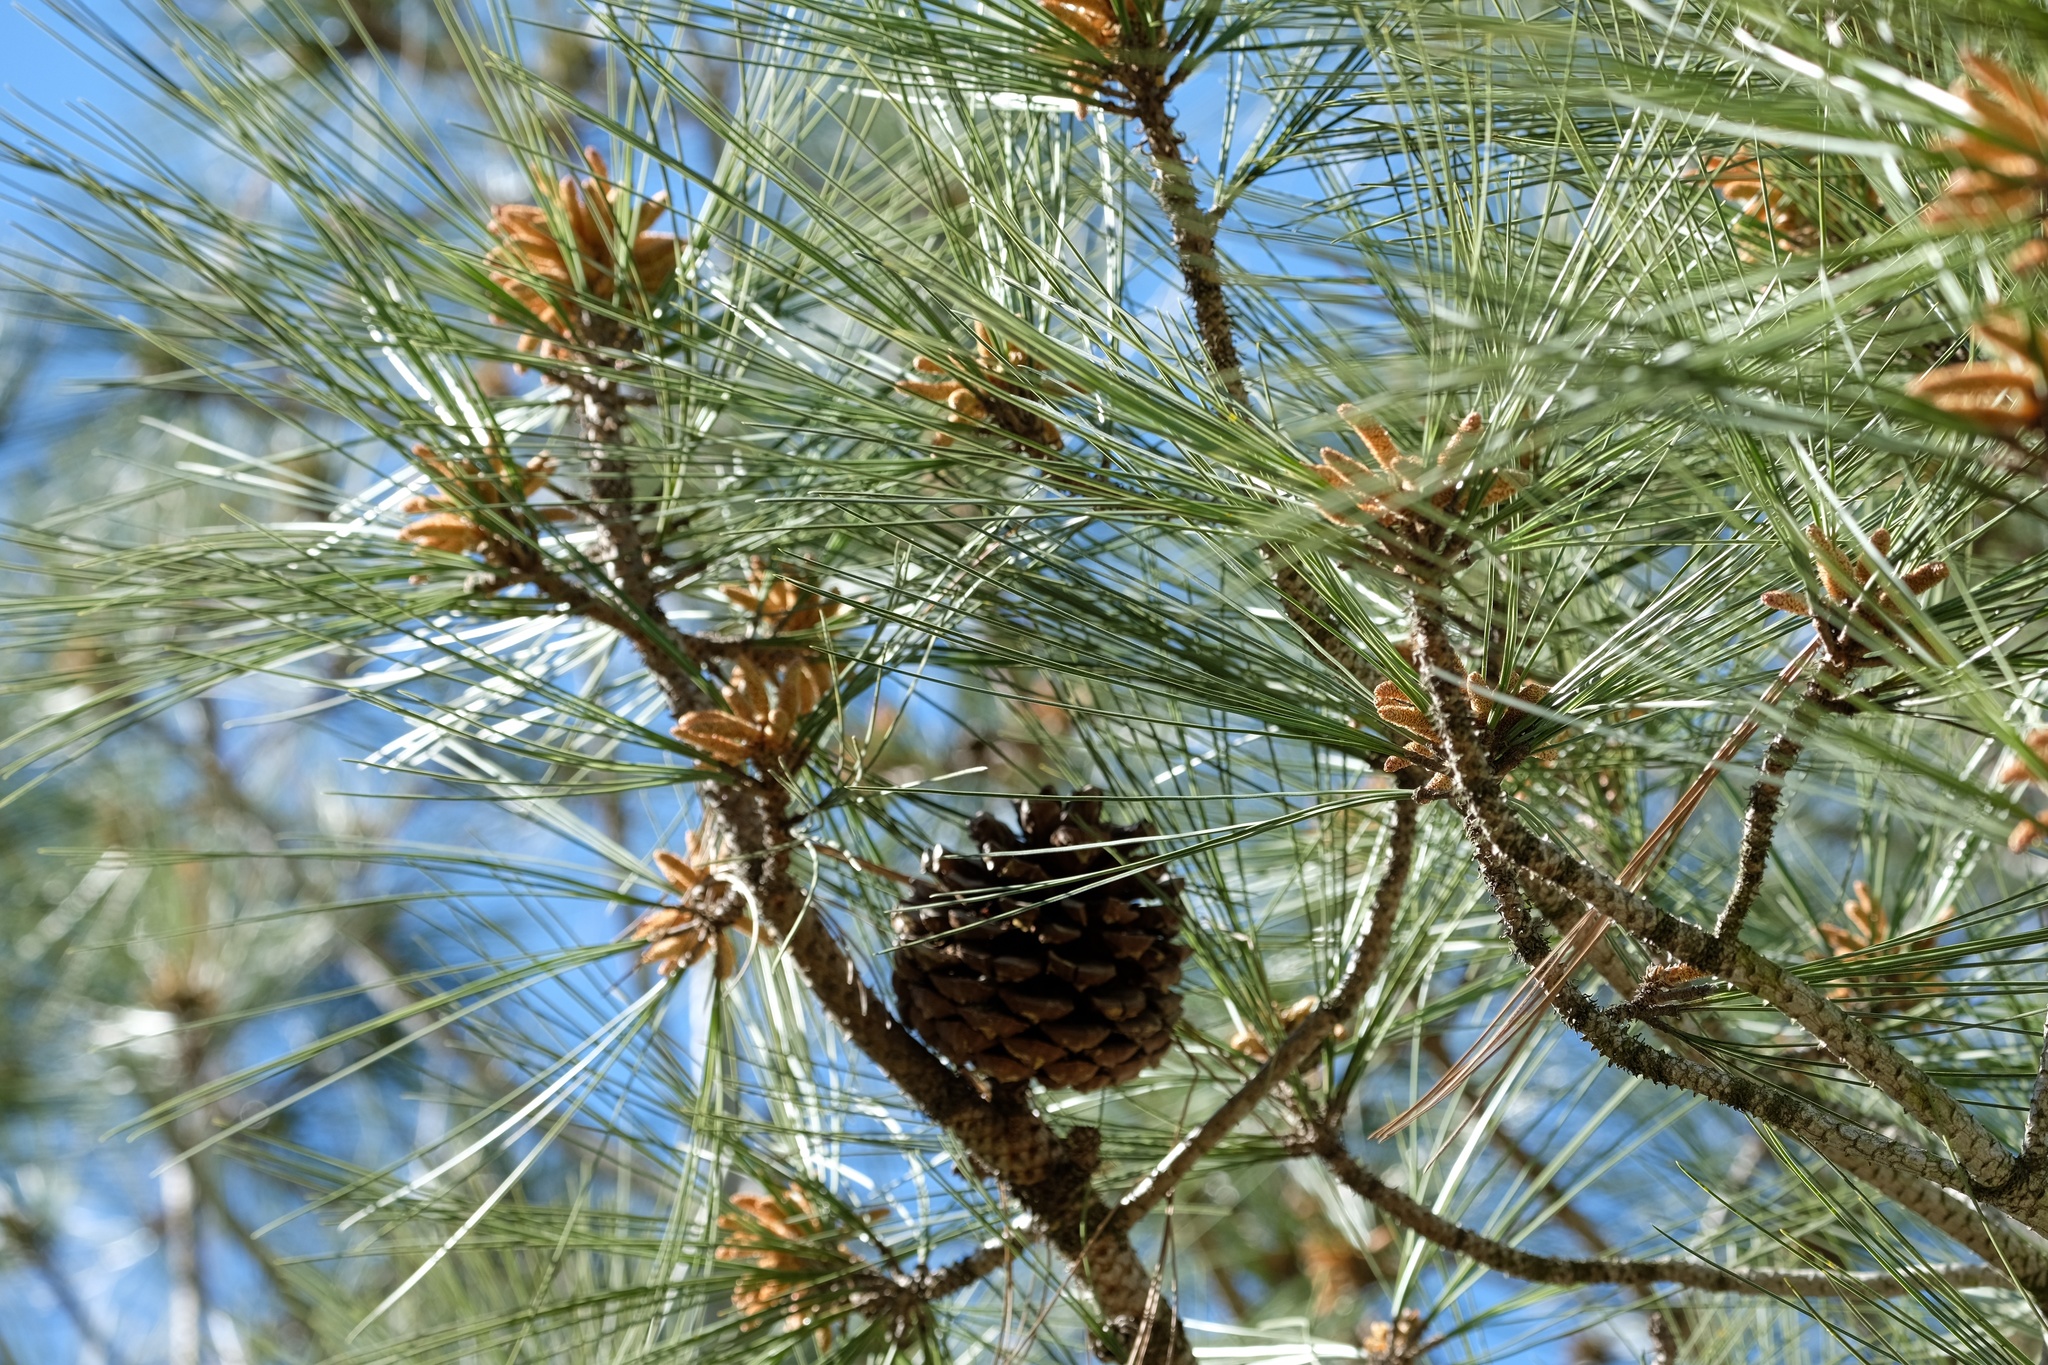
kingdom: Plantae
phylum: Tracheophyta
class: Pinopsida
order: Pinales
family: Pinaceae
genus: Pinus
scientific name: Pinus torreyana
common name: Torrey pine
